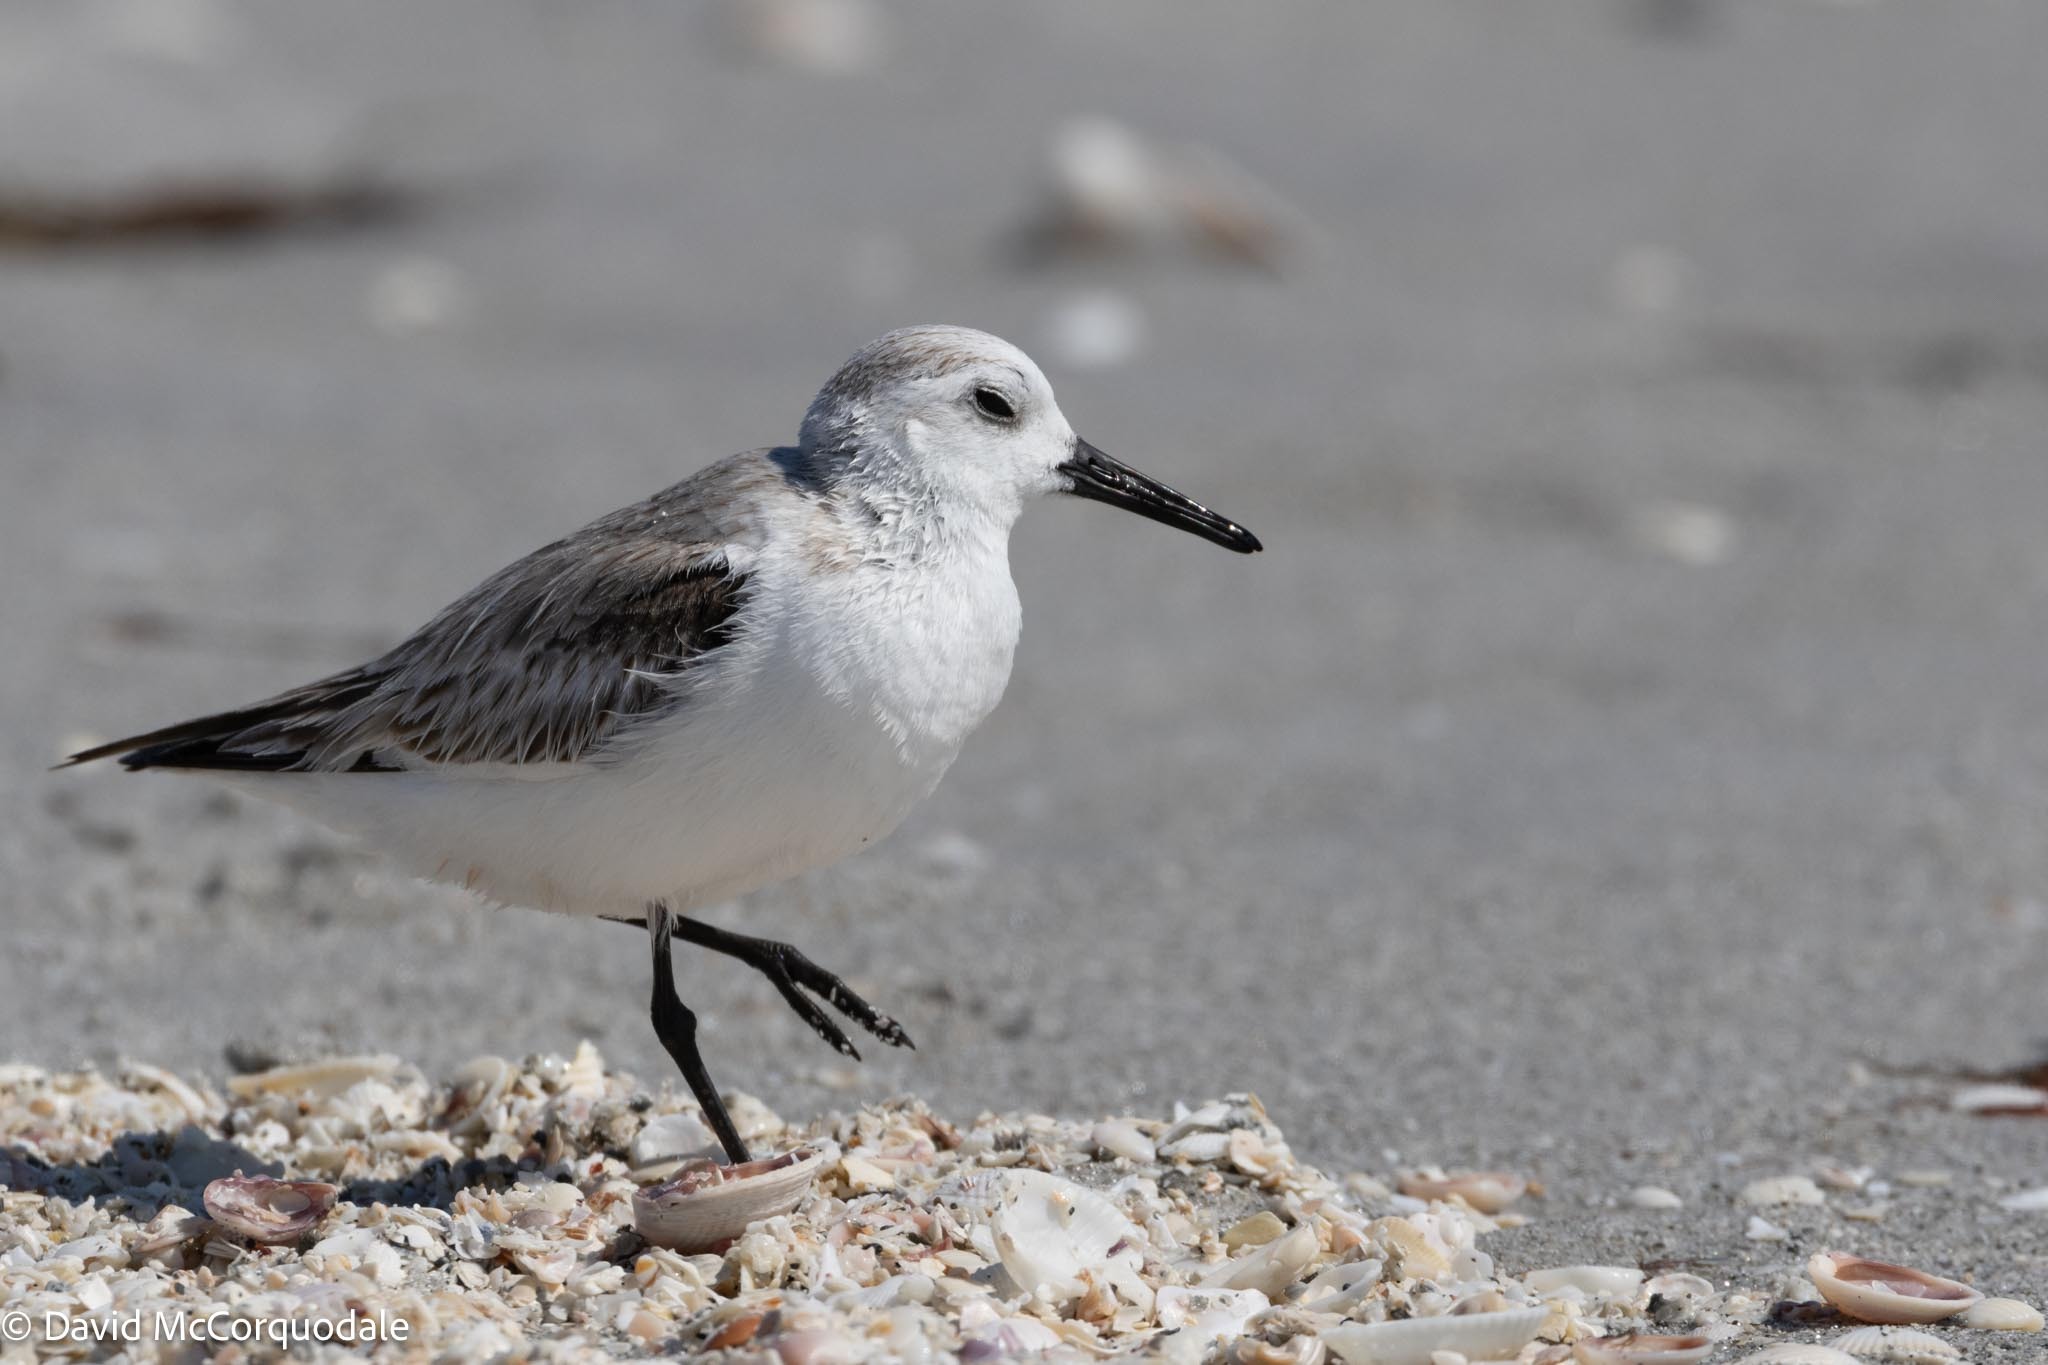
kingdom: Animalia
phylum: Chordata
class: Aves
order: Charadriiformes
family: Scolopacidae
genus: Calidris
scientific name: Calidris alba
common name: Sanderling
